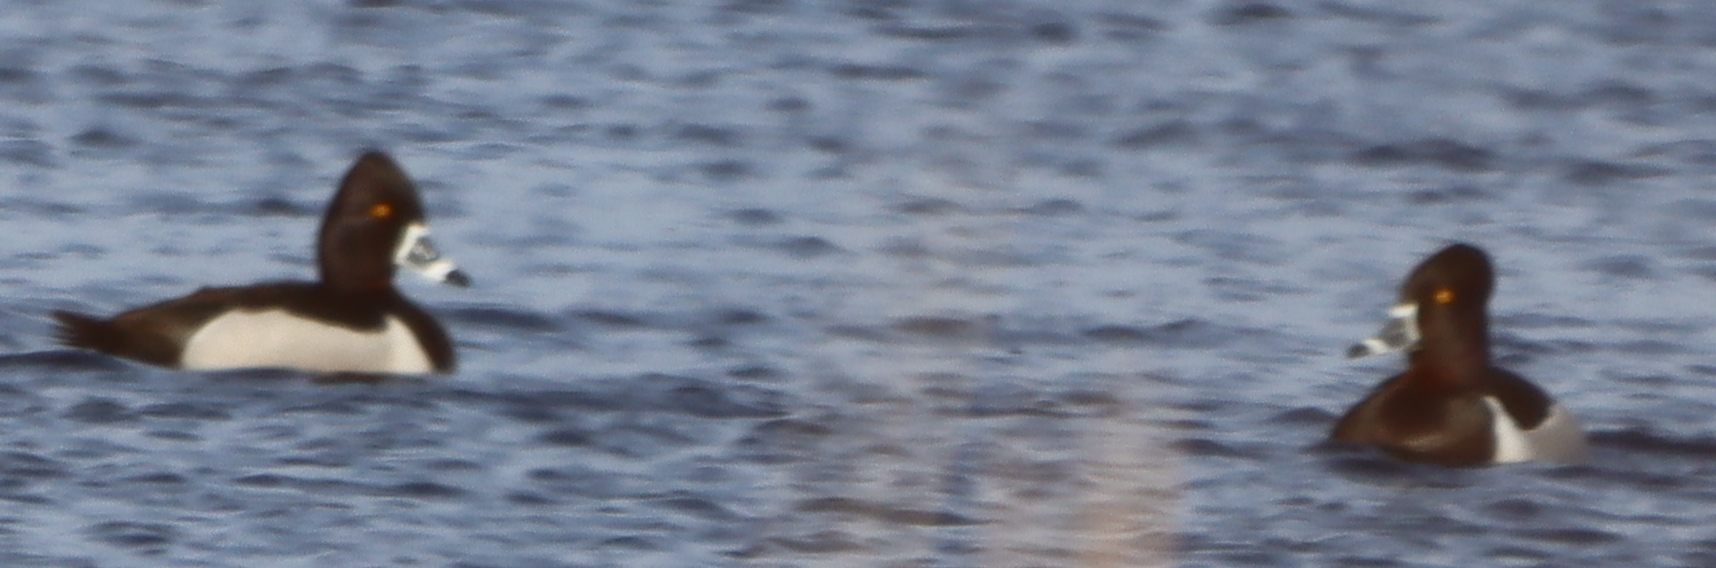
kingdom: Animalia
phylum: Chordata
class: Aves
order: Anseriformes
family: Anatidae
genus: Aythya
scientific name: Aythya collaris
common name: Ring-necked duck
